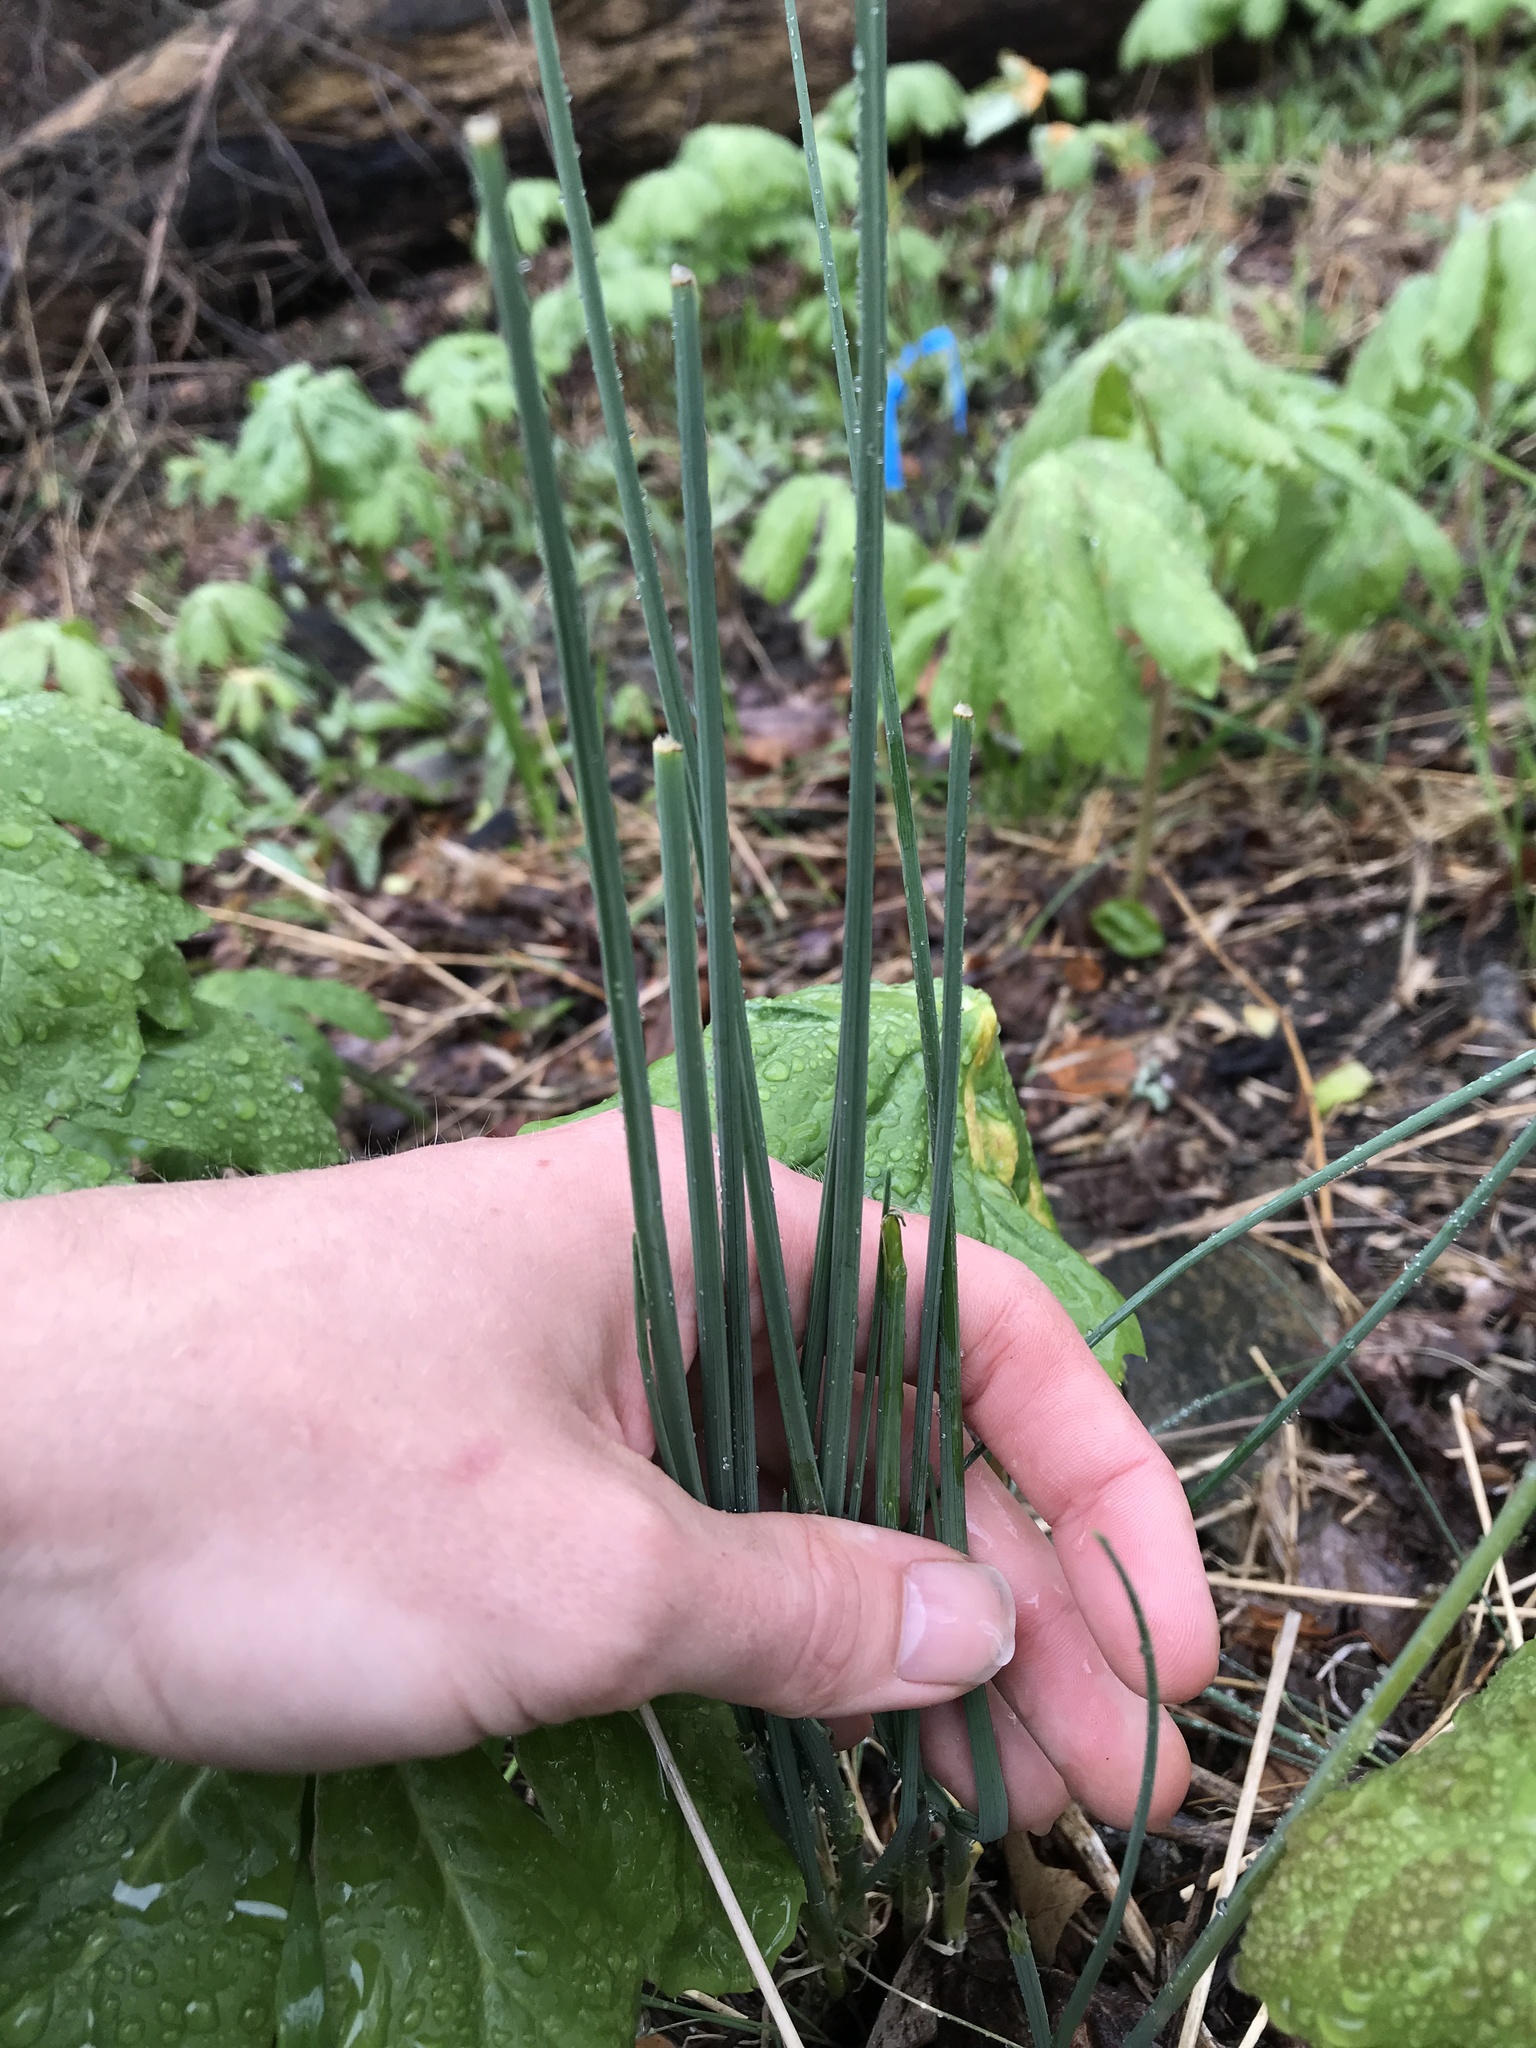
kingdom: Plantae
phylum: Tracheophyta
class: Liliopsida
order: Asparagales
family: Amaryllidaceae
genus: Allium
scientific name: Allium vineale
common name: Crow garlic
